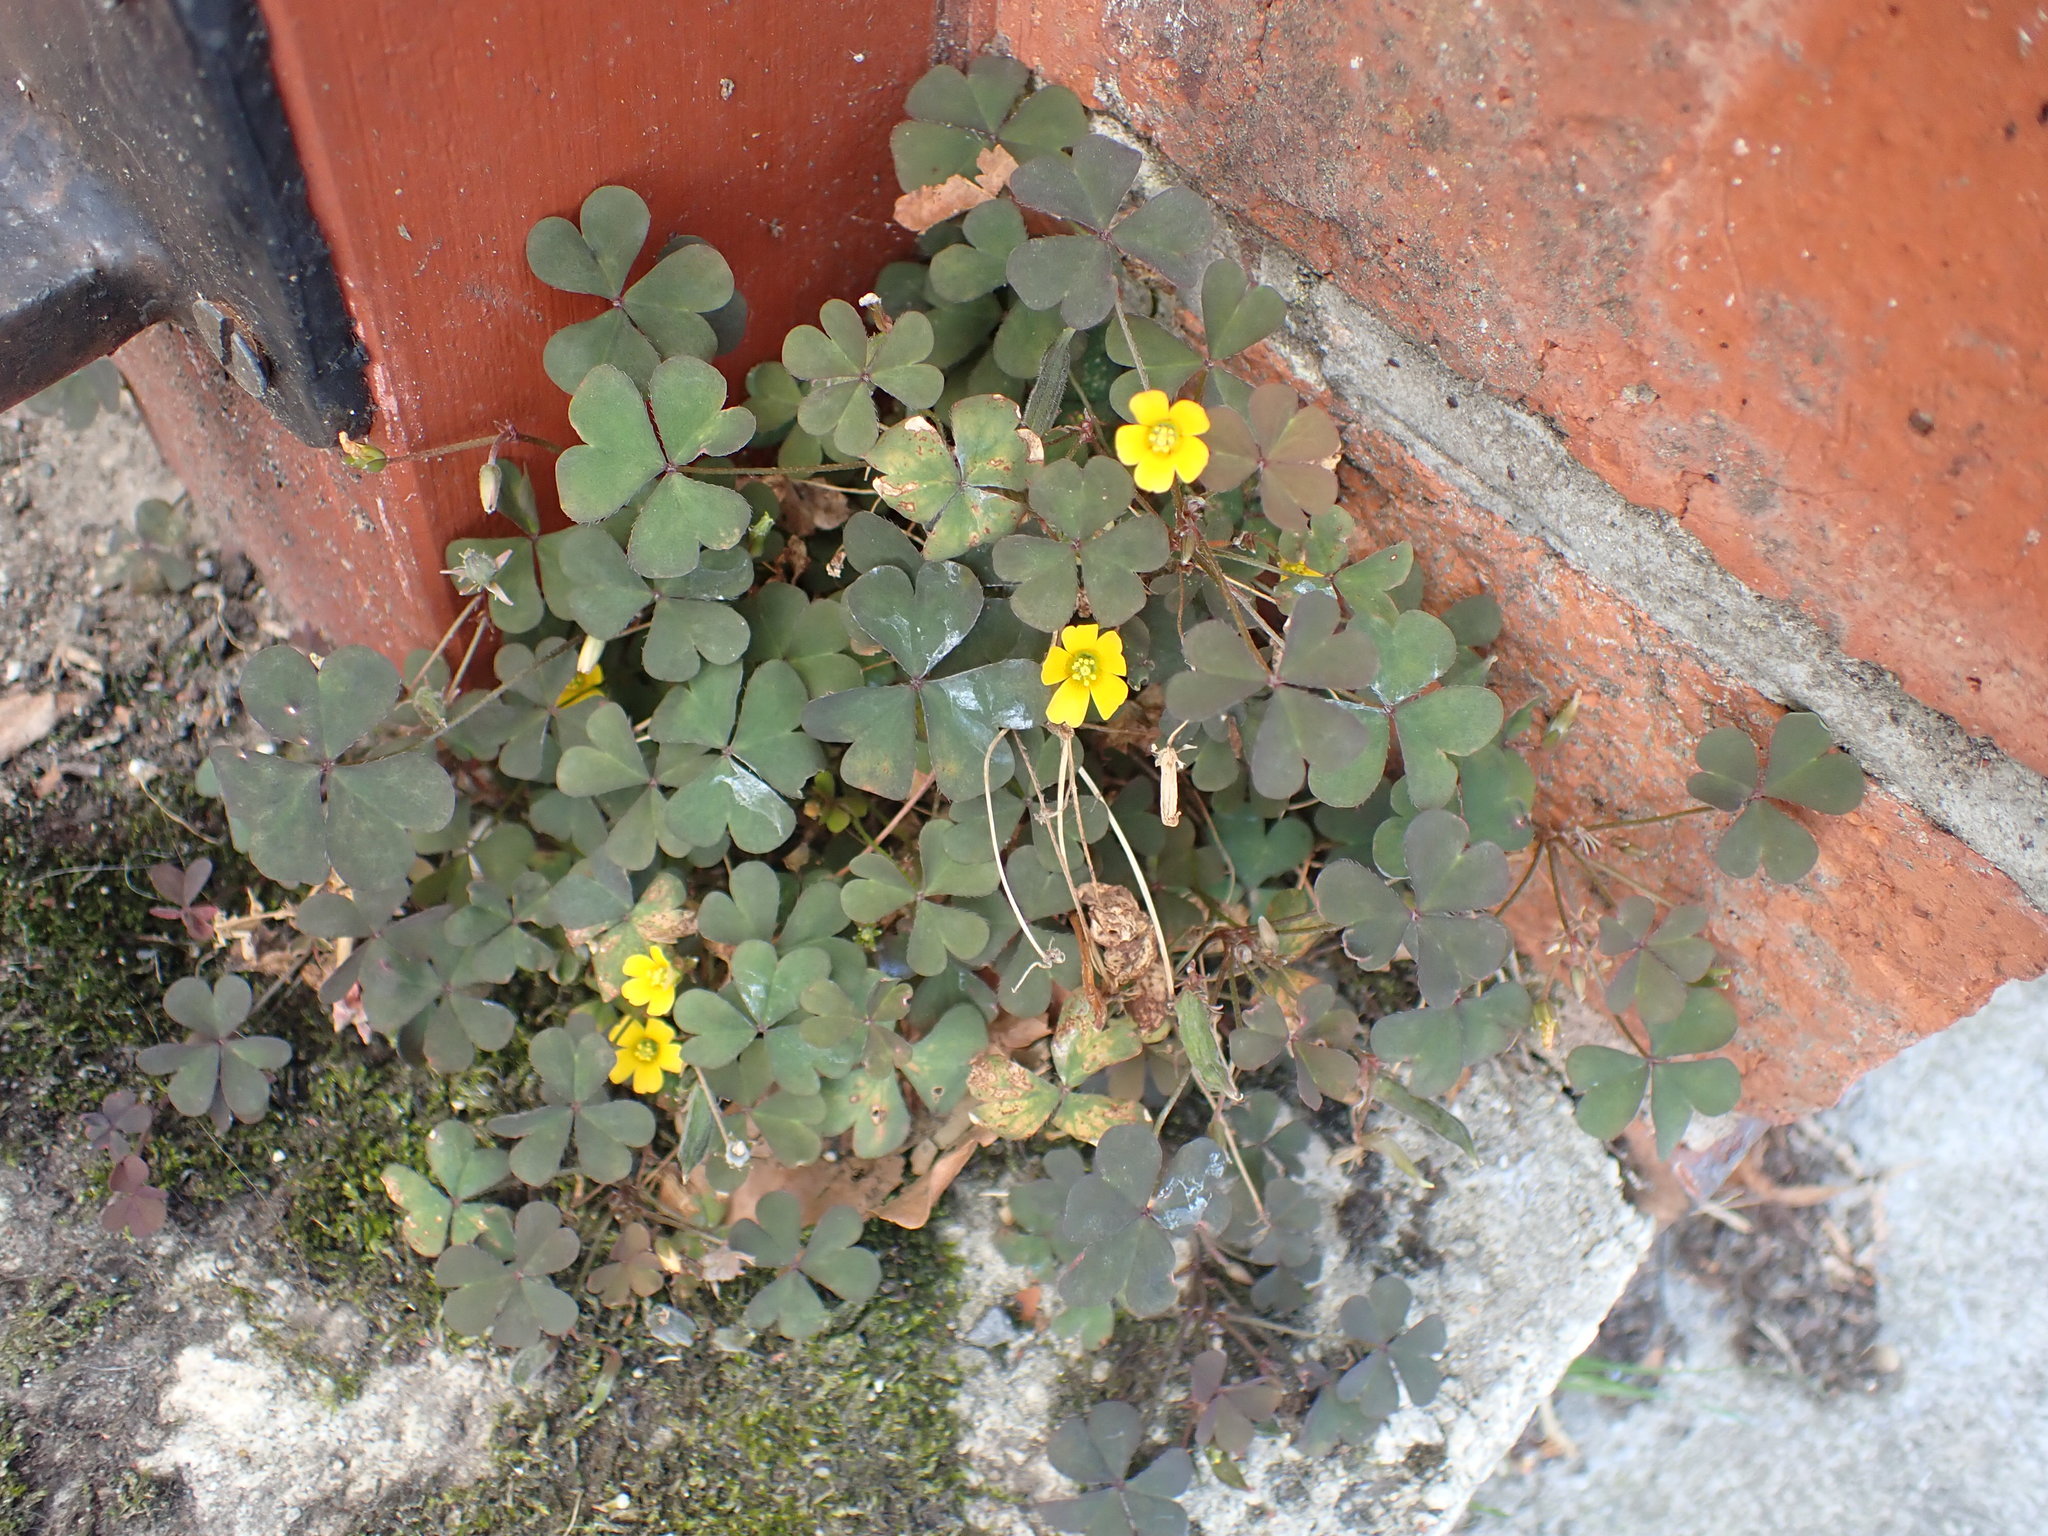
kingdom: Plantae
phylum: Tracheophyta
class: Magnoliopsida
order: Oxalidales
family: Oxalidaceae
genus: Oxalis
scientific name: Oxalis corniculata
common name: Procumbent yellow-sorrel
